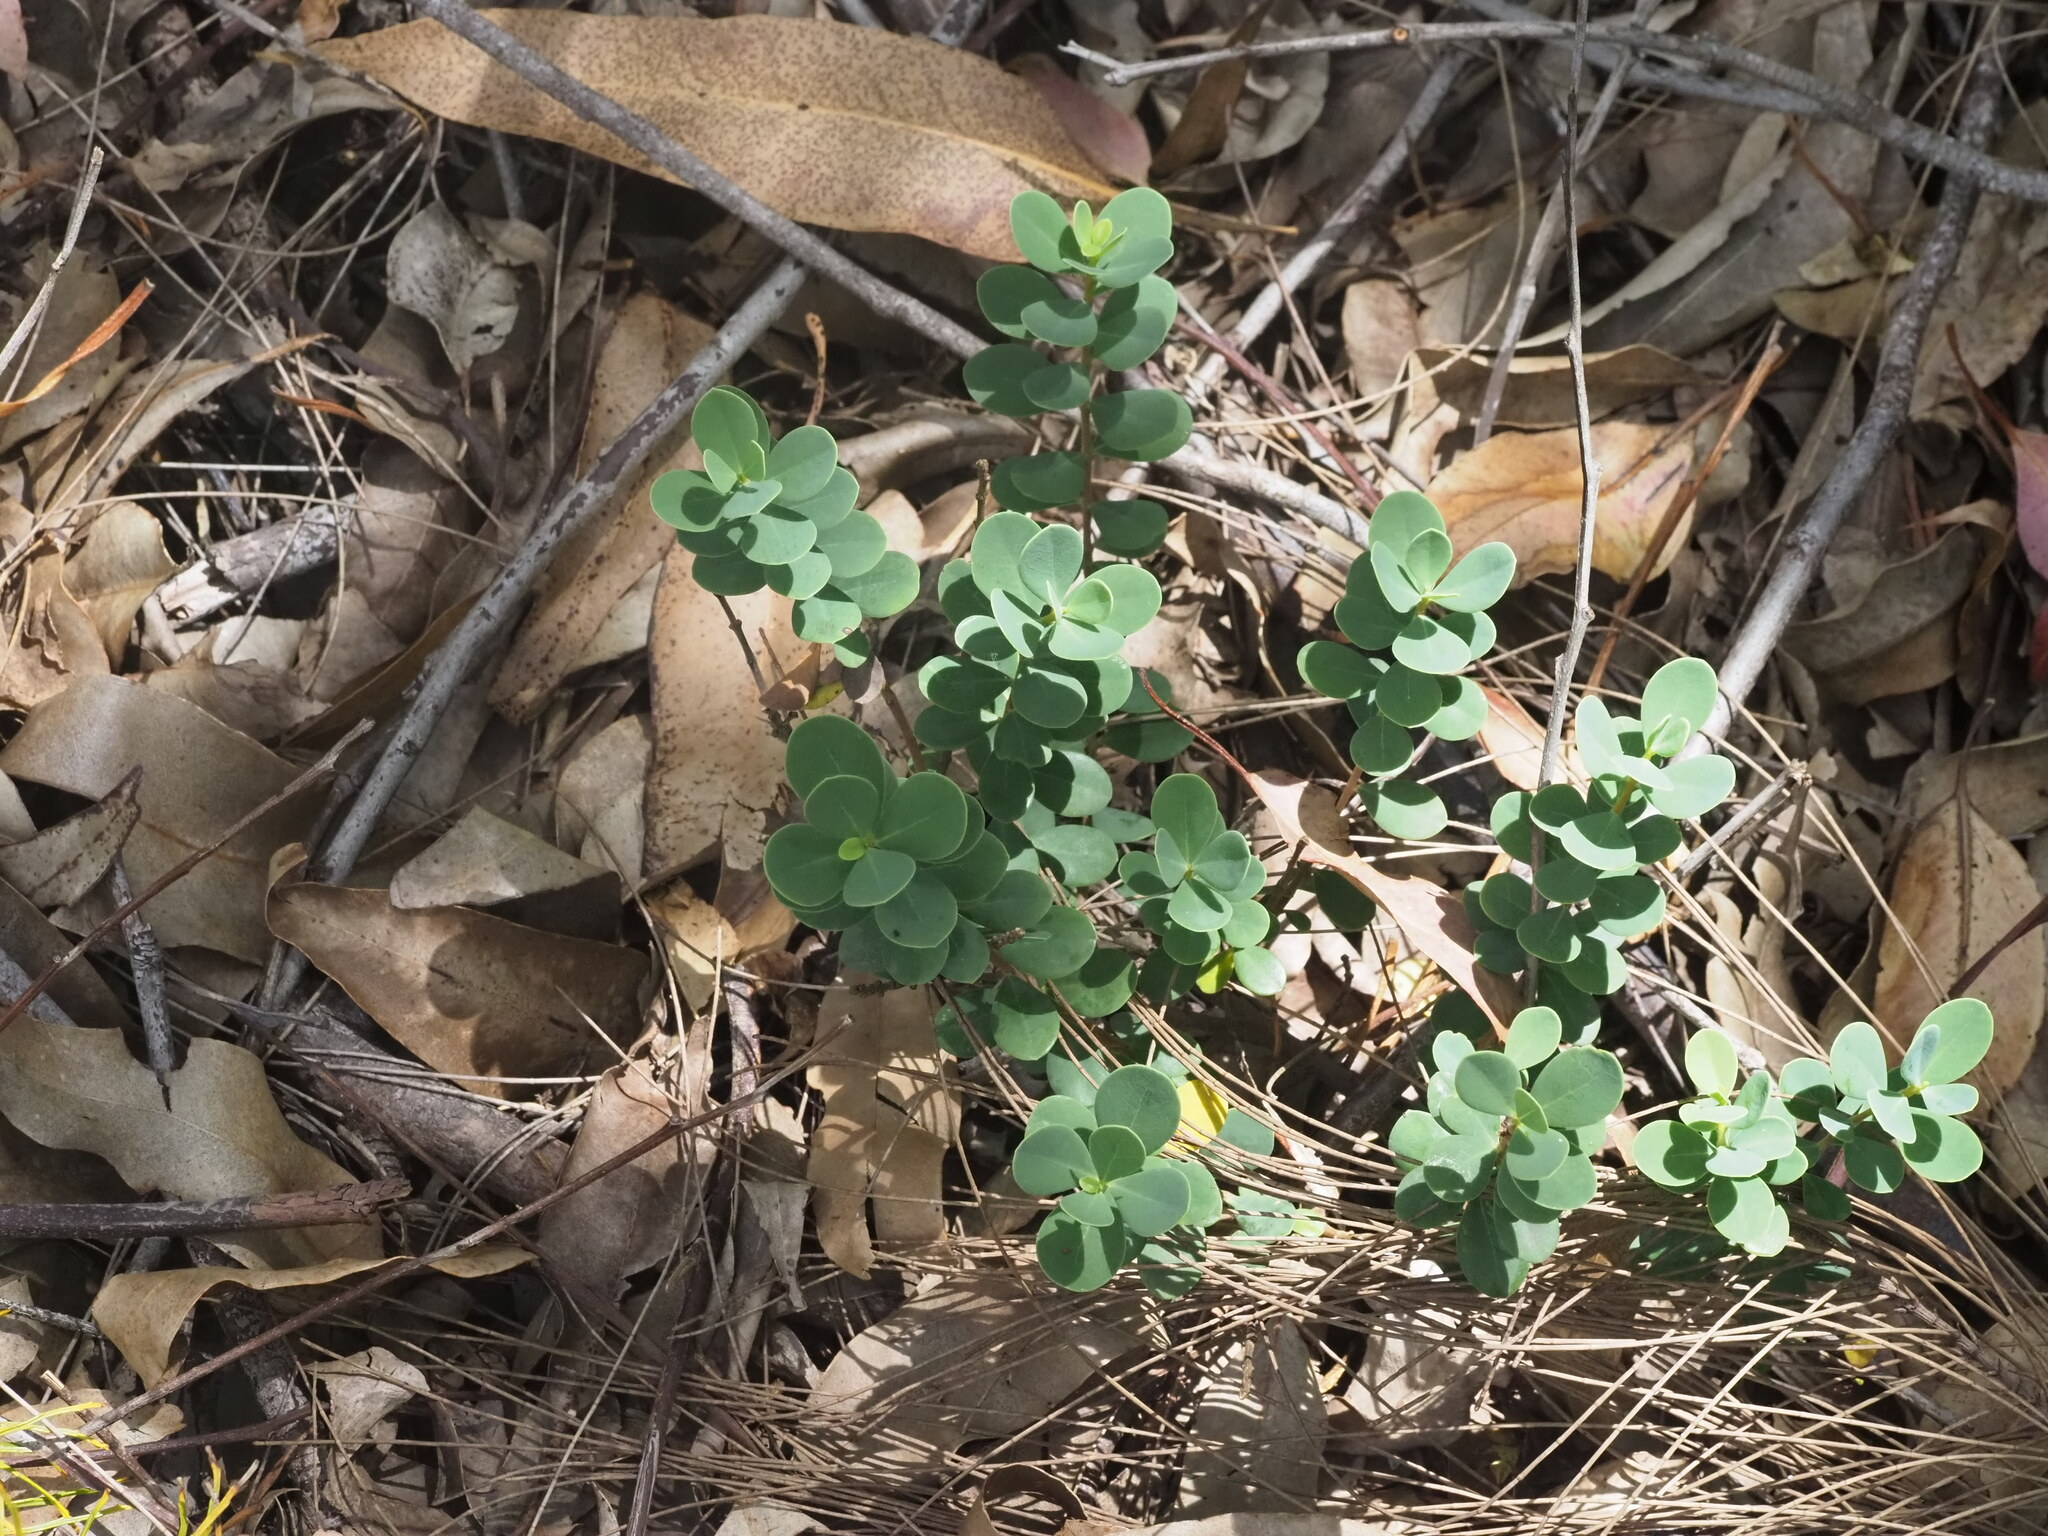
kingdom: Plantae
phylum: Tracheophyta
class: Magnoliopsida
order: Malvales
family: Thymelaeaceae
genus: Wikstroemia
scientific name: Wikstroemia uva-ursi
